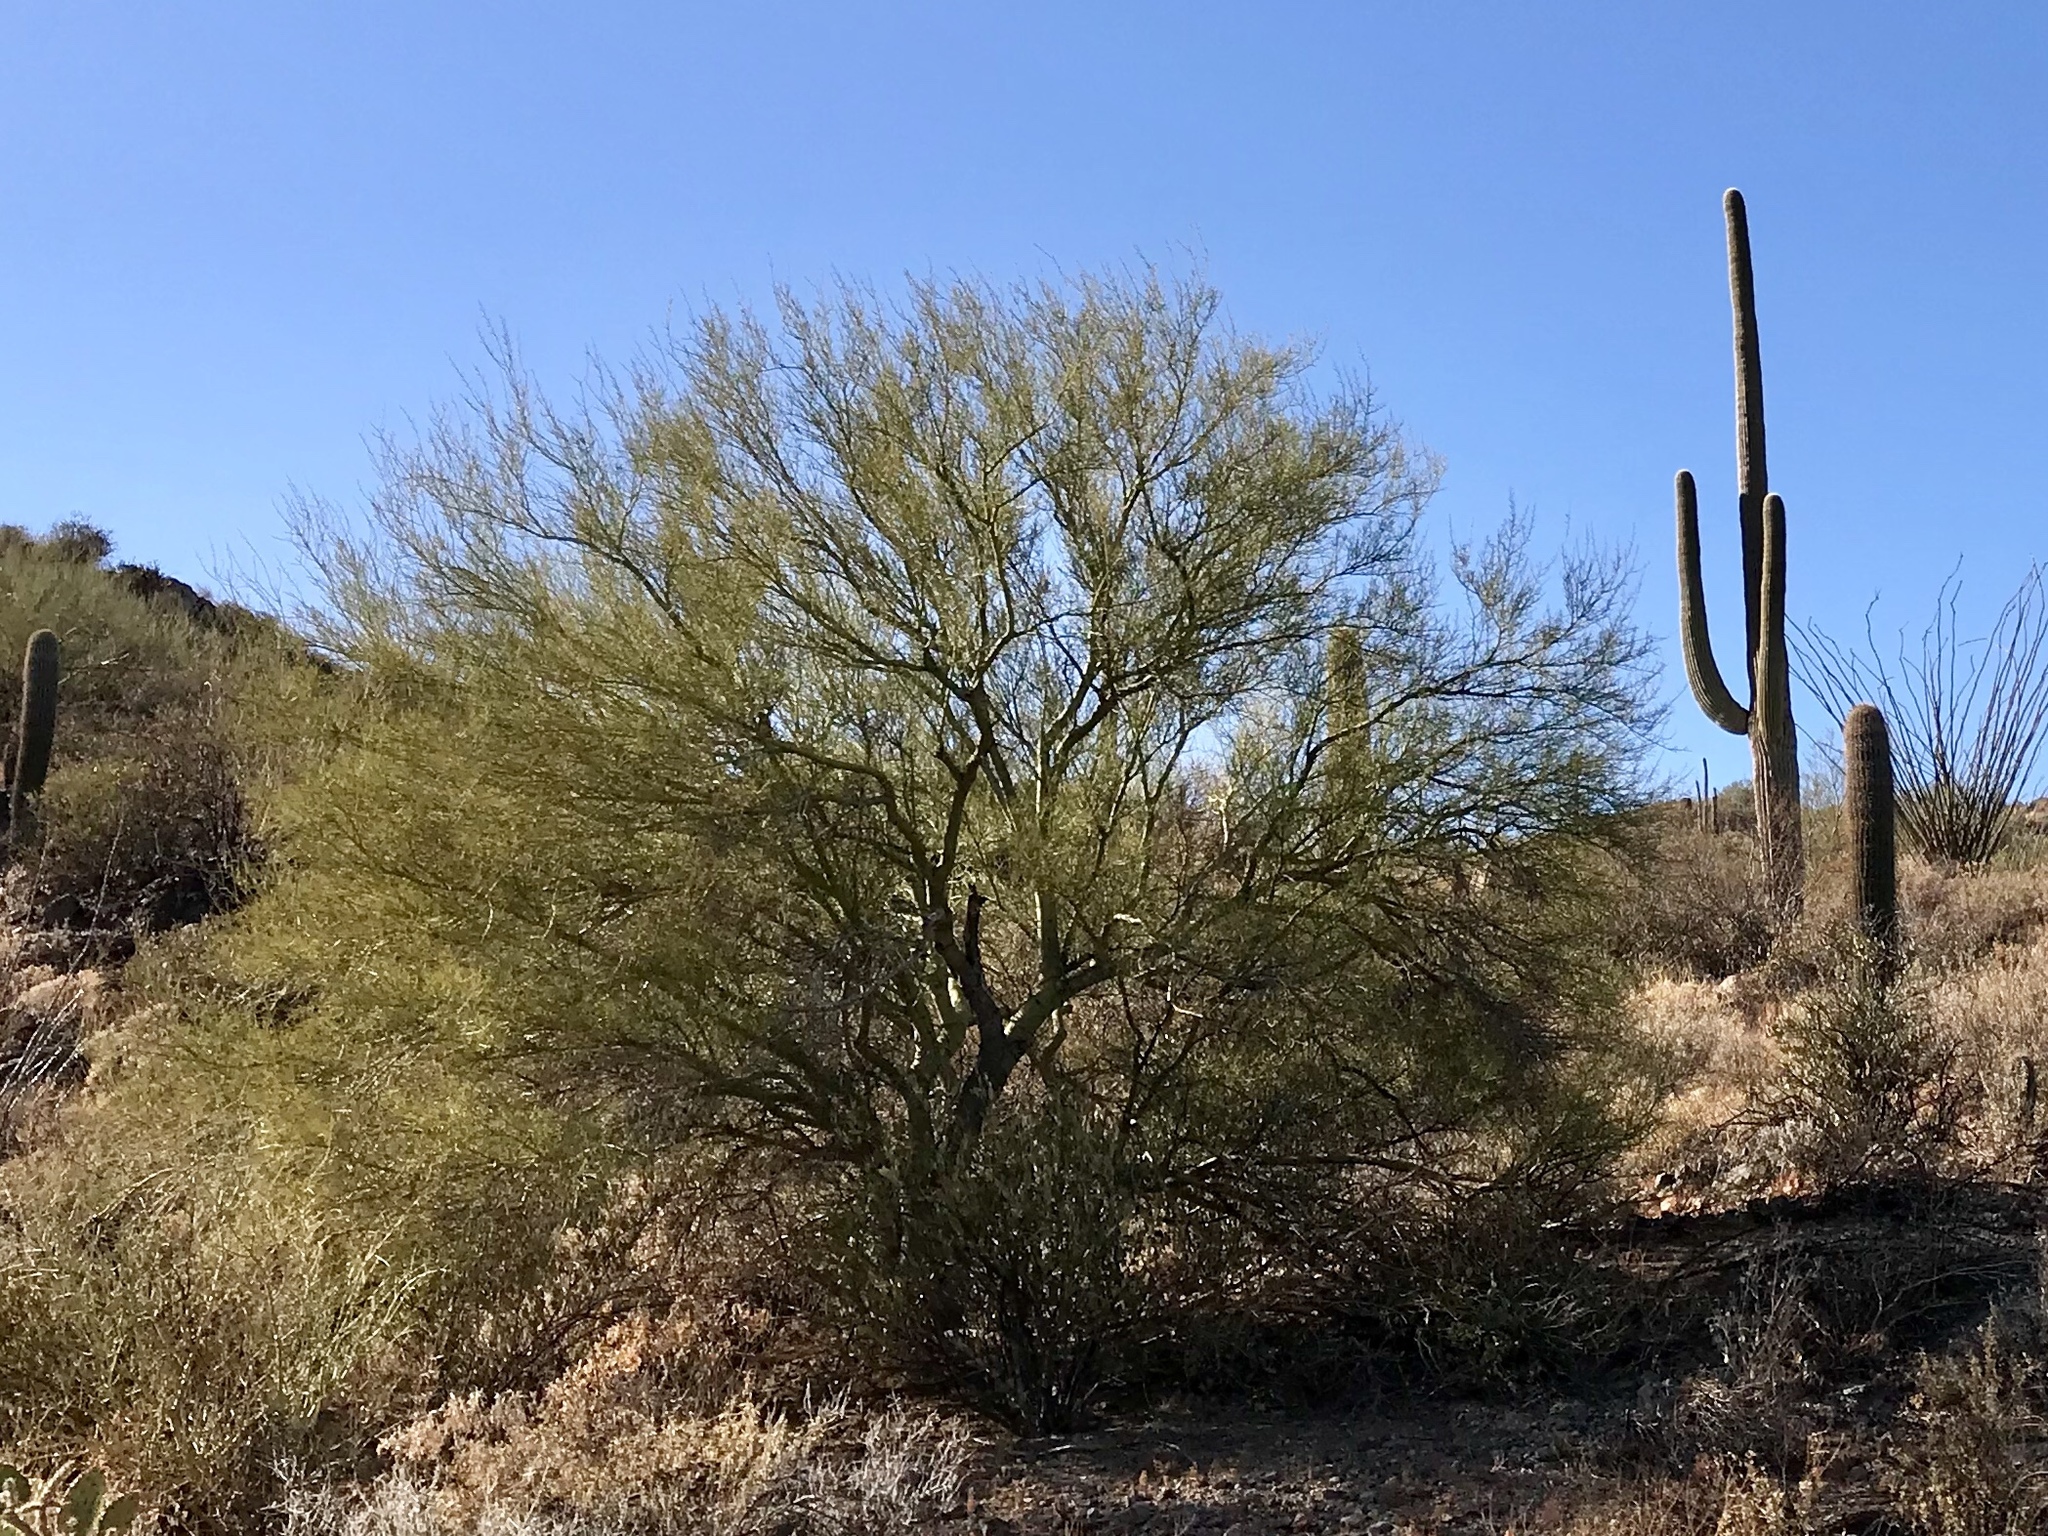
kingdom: Plantae
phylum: Tracheophyta
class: Magnoliopsida
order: Fabales
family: Fabaceae
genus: Parkinsonia
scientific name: Parkinsonia microphylla
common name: Yellow paloverde
